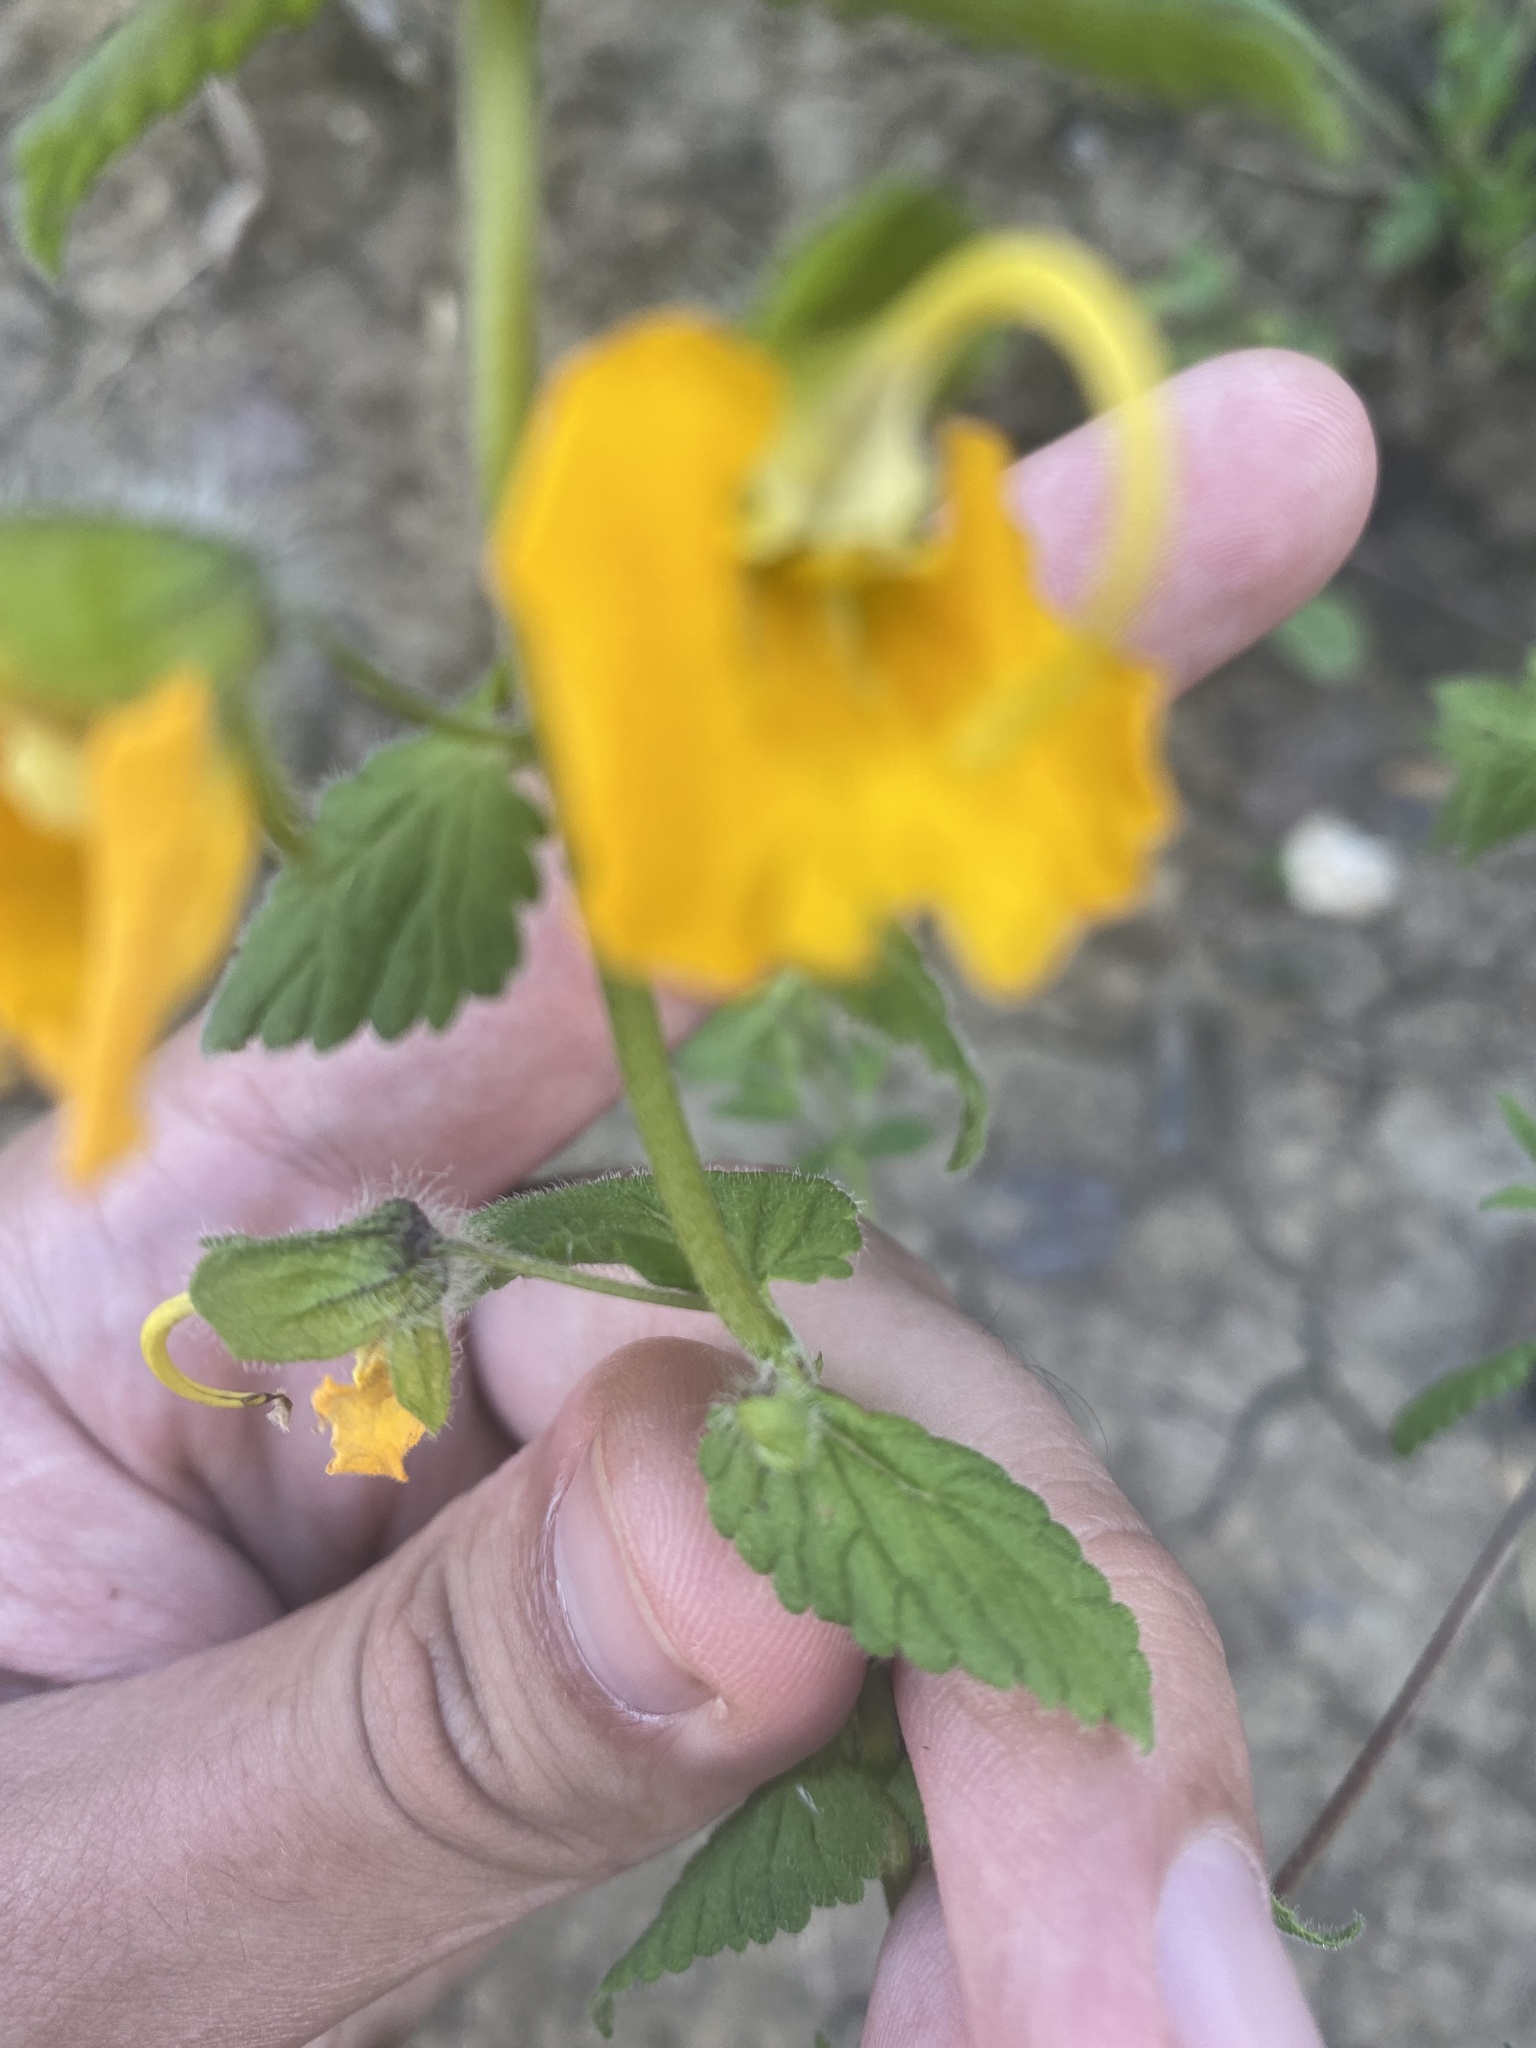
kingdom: Plantae
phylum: Tracheophyta
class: Magnoliopsida
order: Lamiales
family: Orobanchaceae
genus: Rhynchocorys
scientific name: Rhynchocorys orientalis
